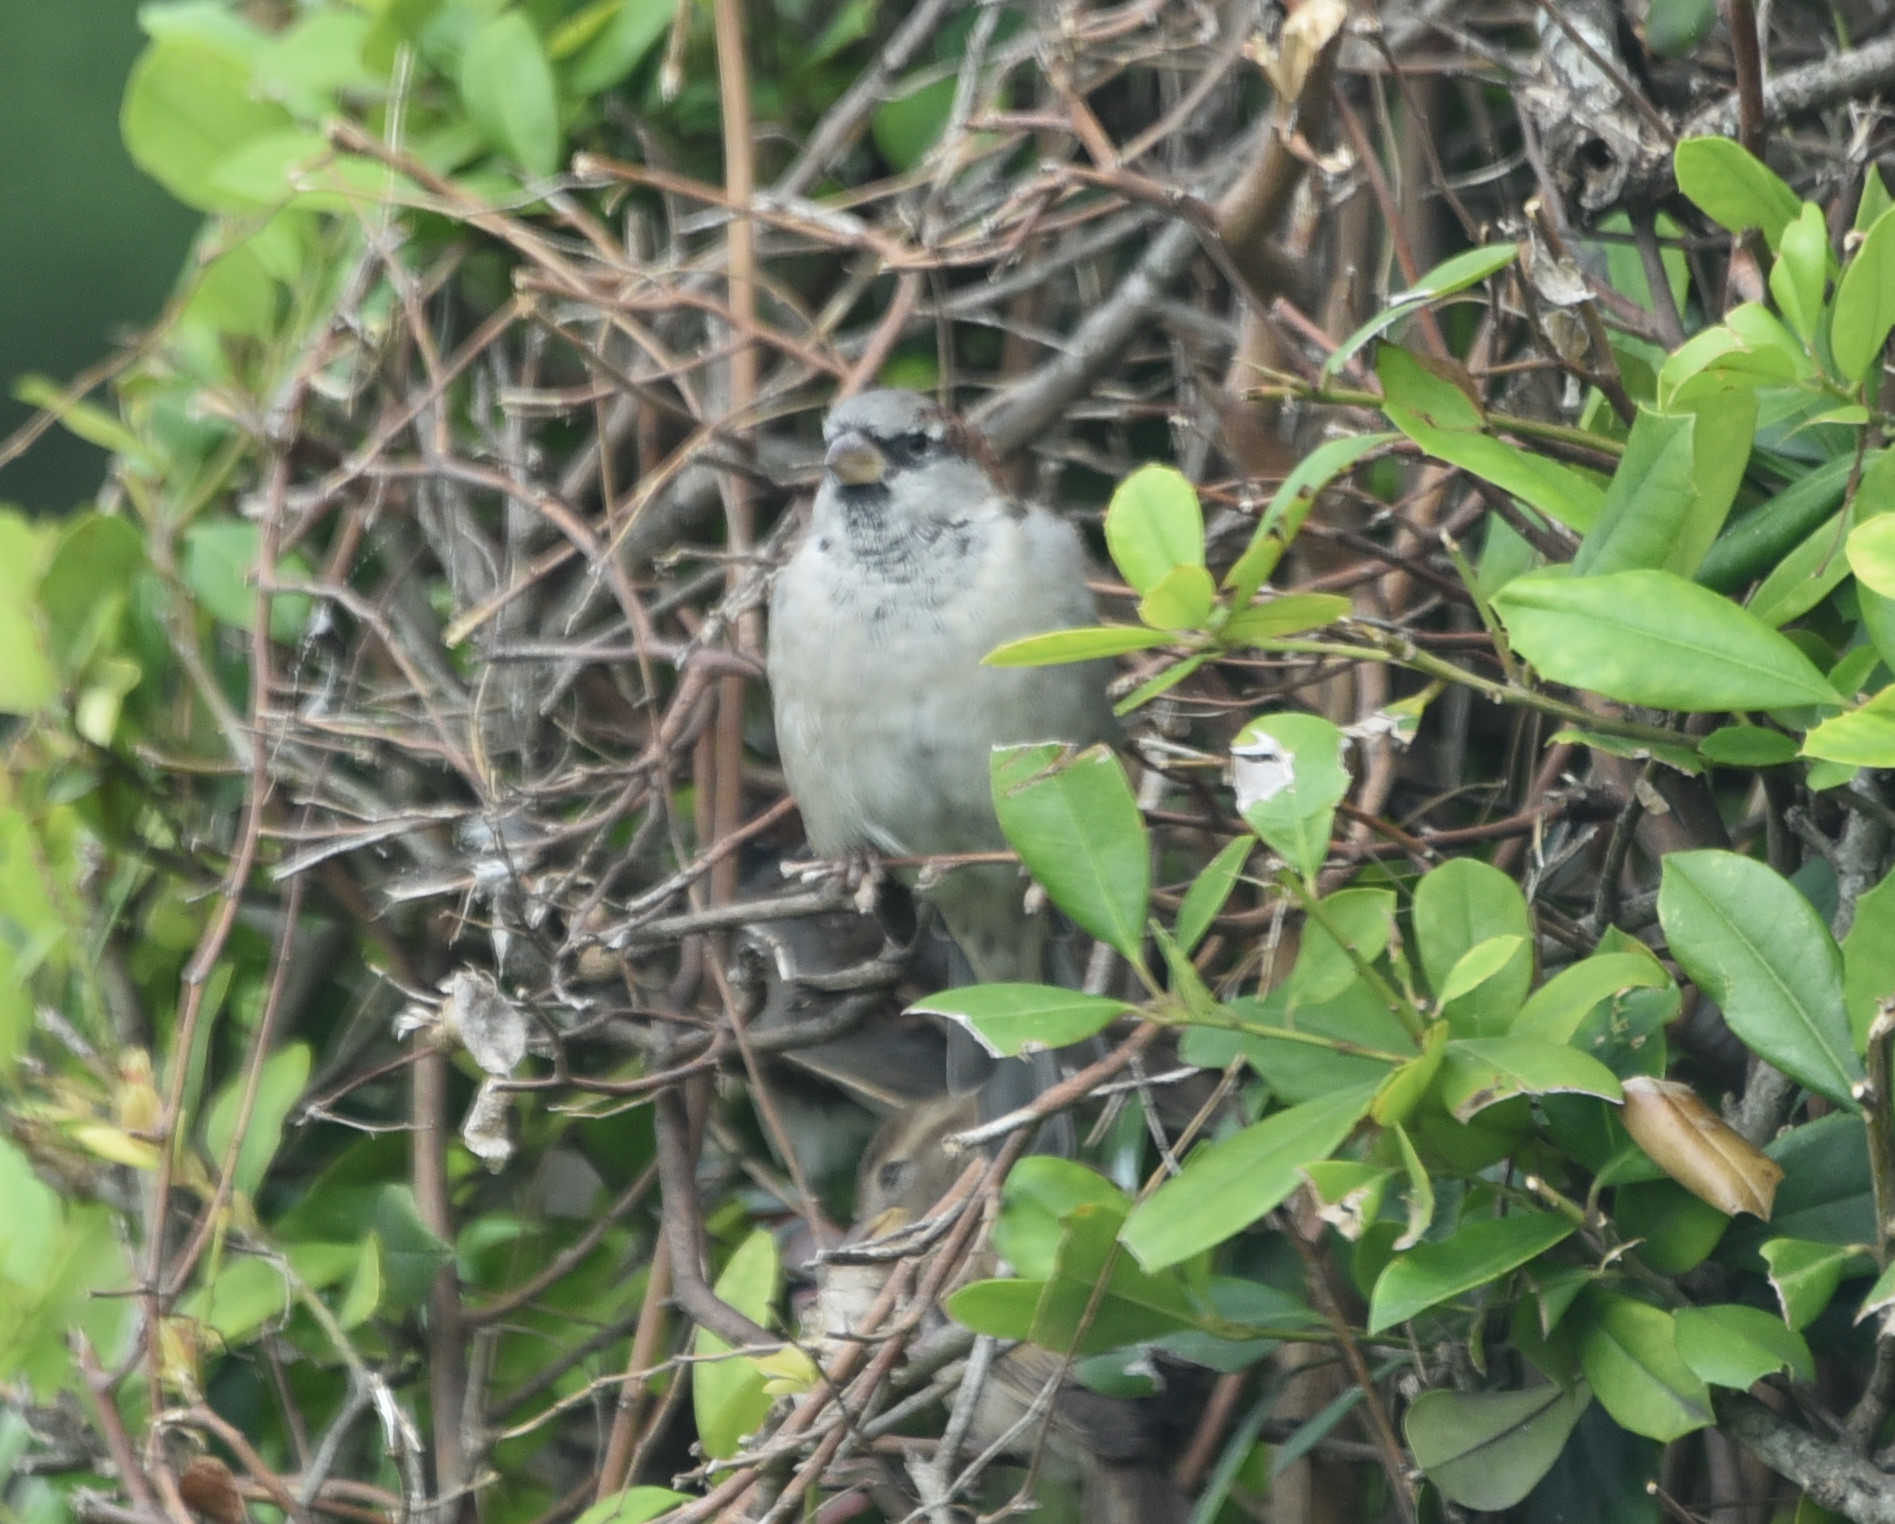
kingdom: Animalia
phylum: Chordata
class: Aves
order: Passeriformes
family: Passeridae
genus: Passer
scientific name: Passer domesticus
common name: House sparrow
